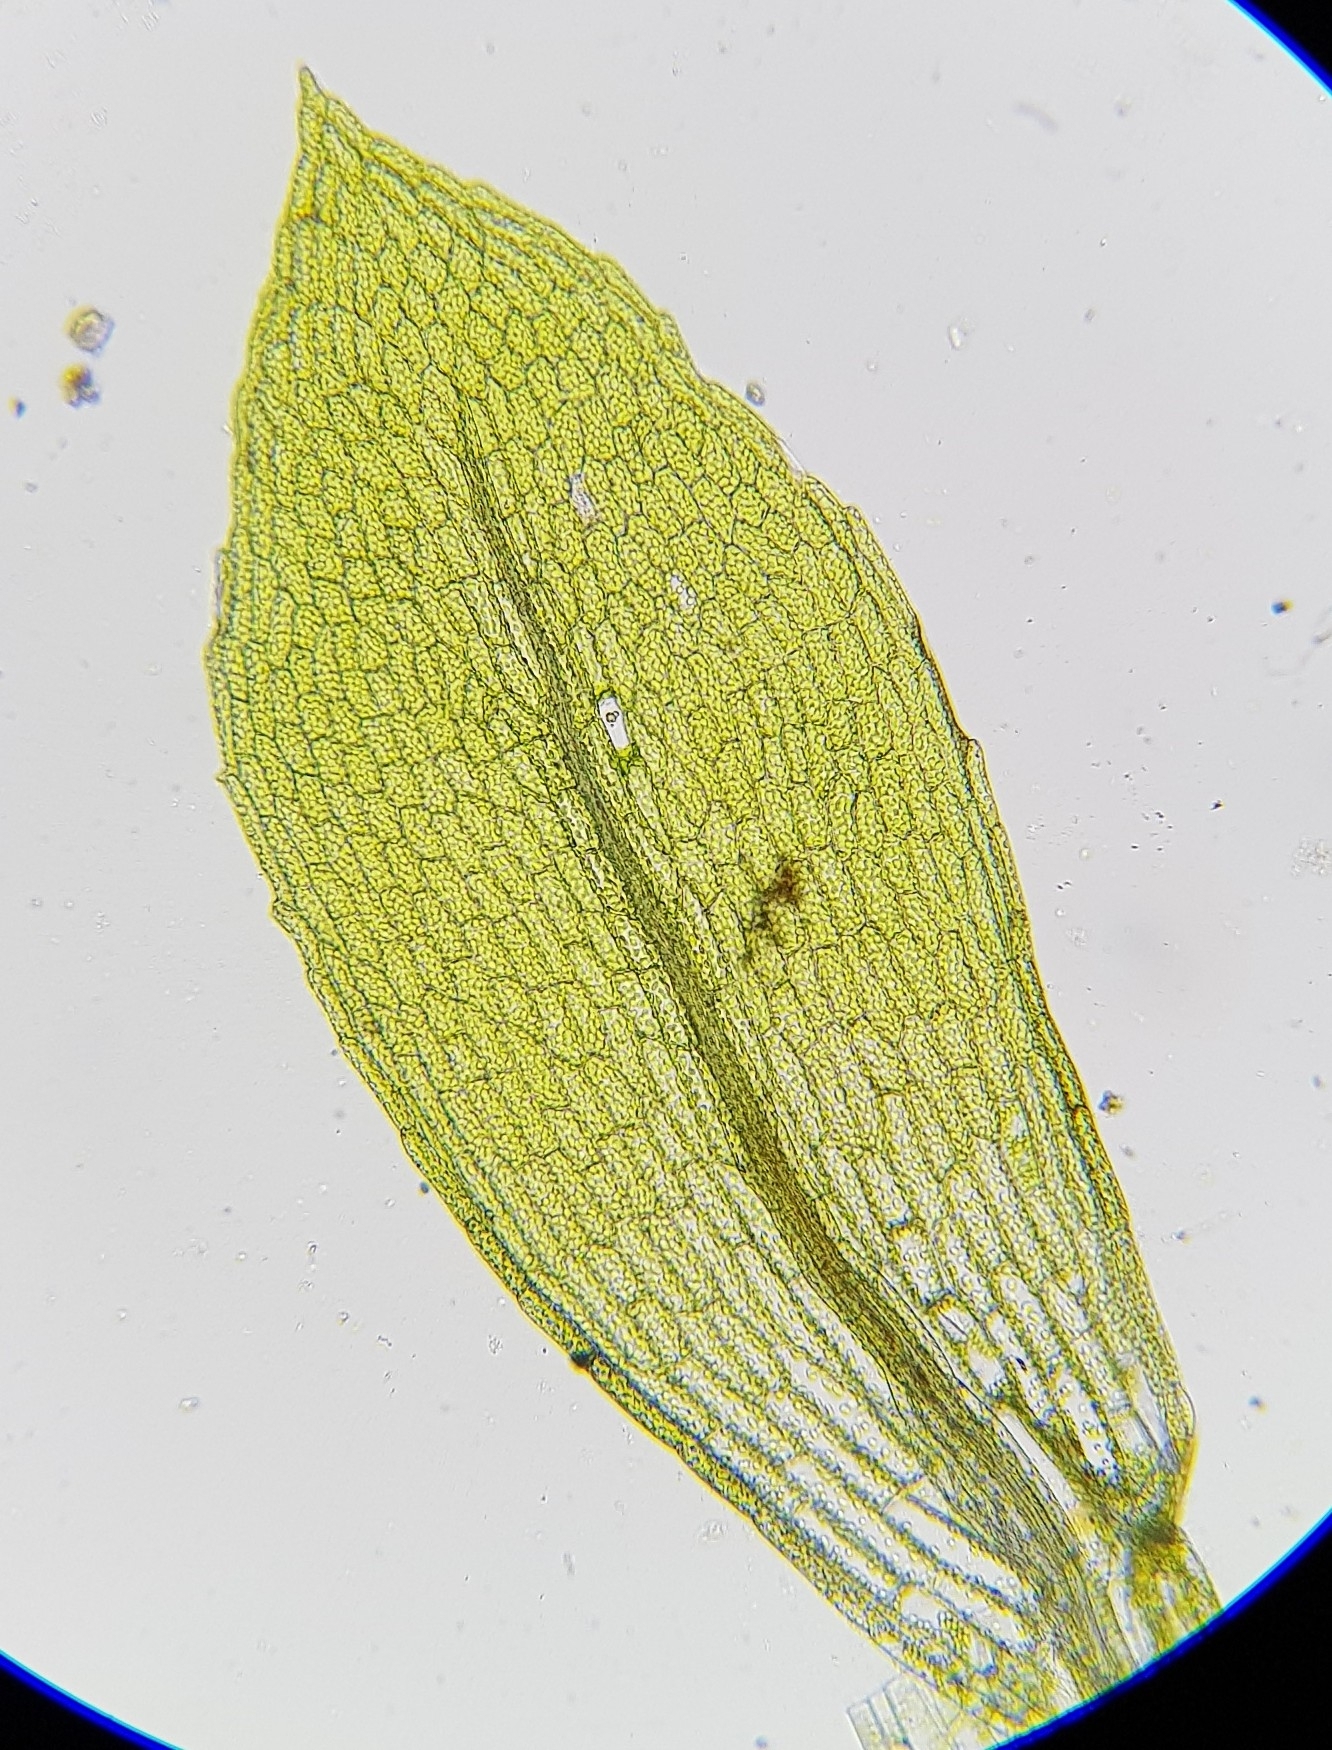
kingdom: Plantae
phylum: Bryophyta
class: Bryopsida
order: Funariales
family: Funariaceae
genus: Physcomitrium
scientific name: Physcomitrium patens
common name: Spreading earth-moss
